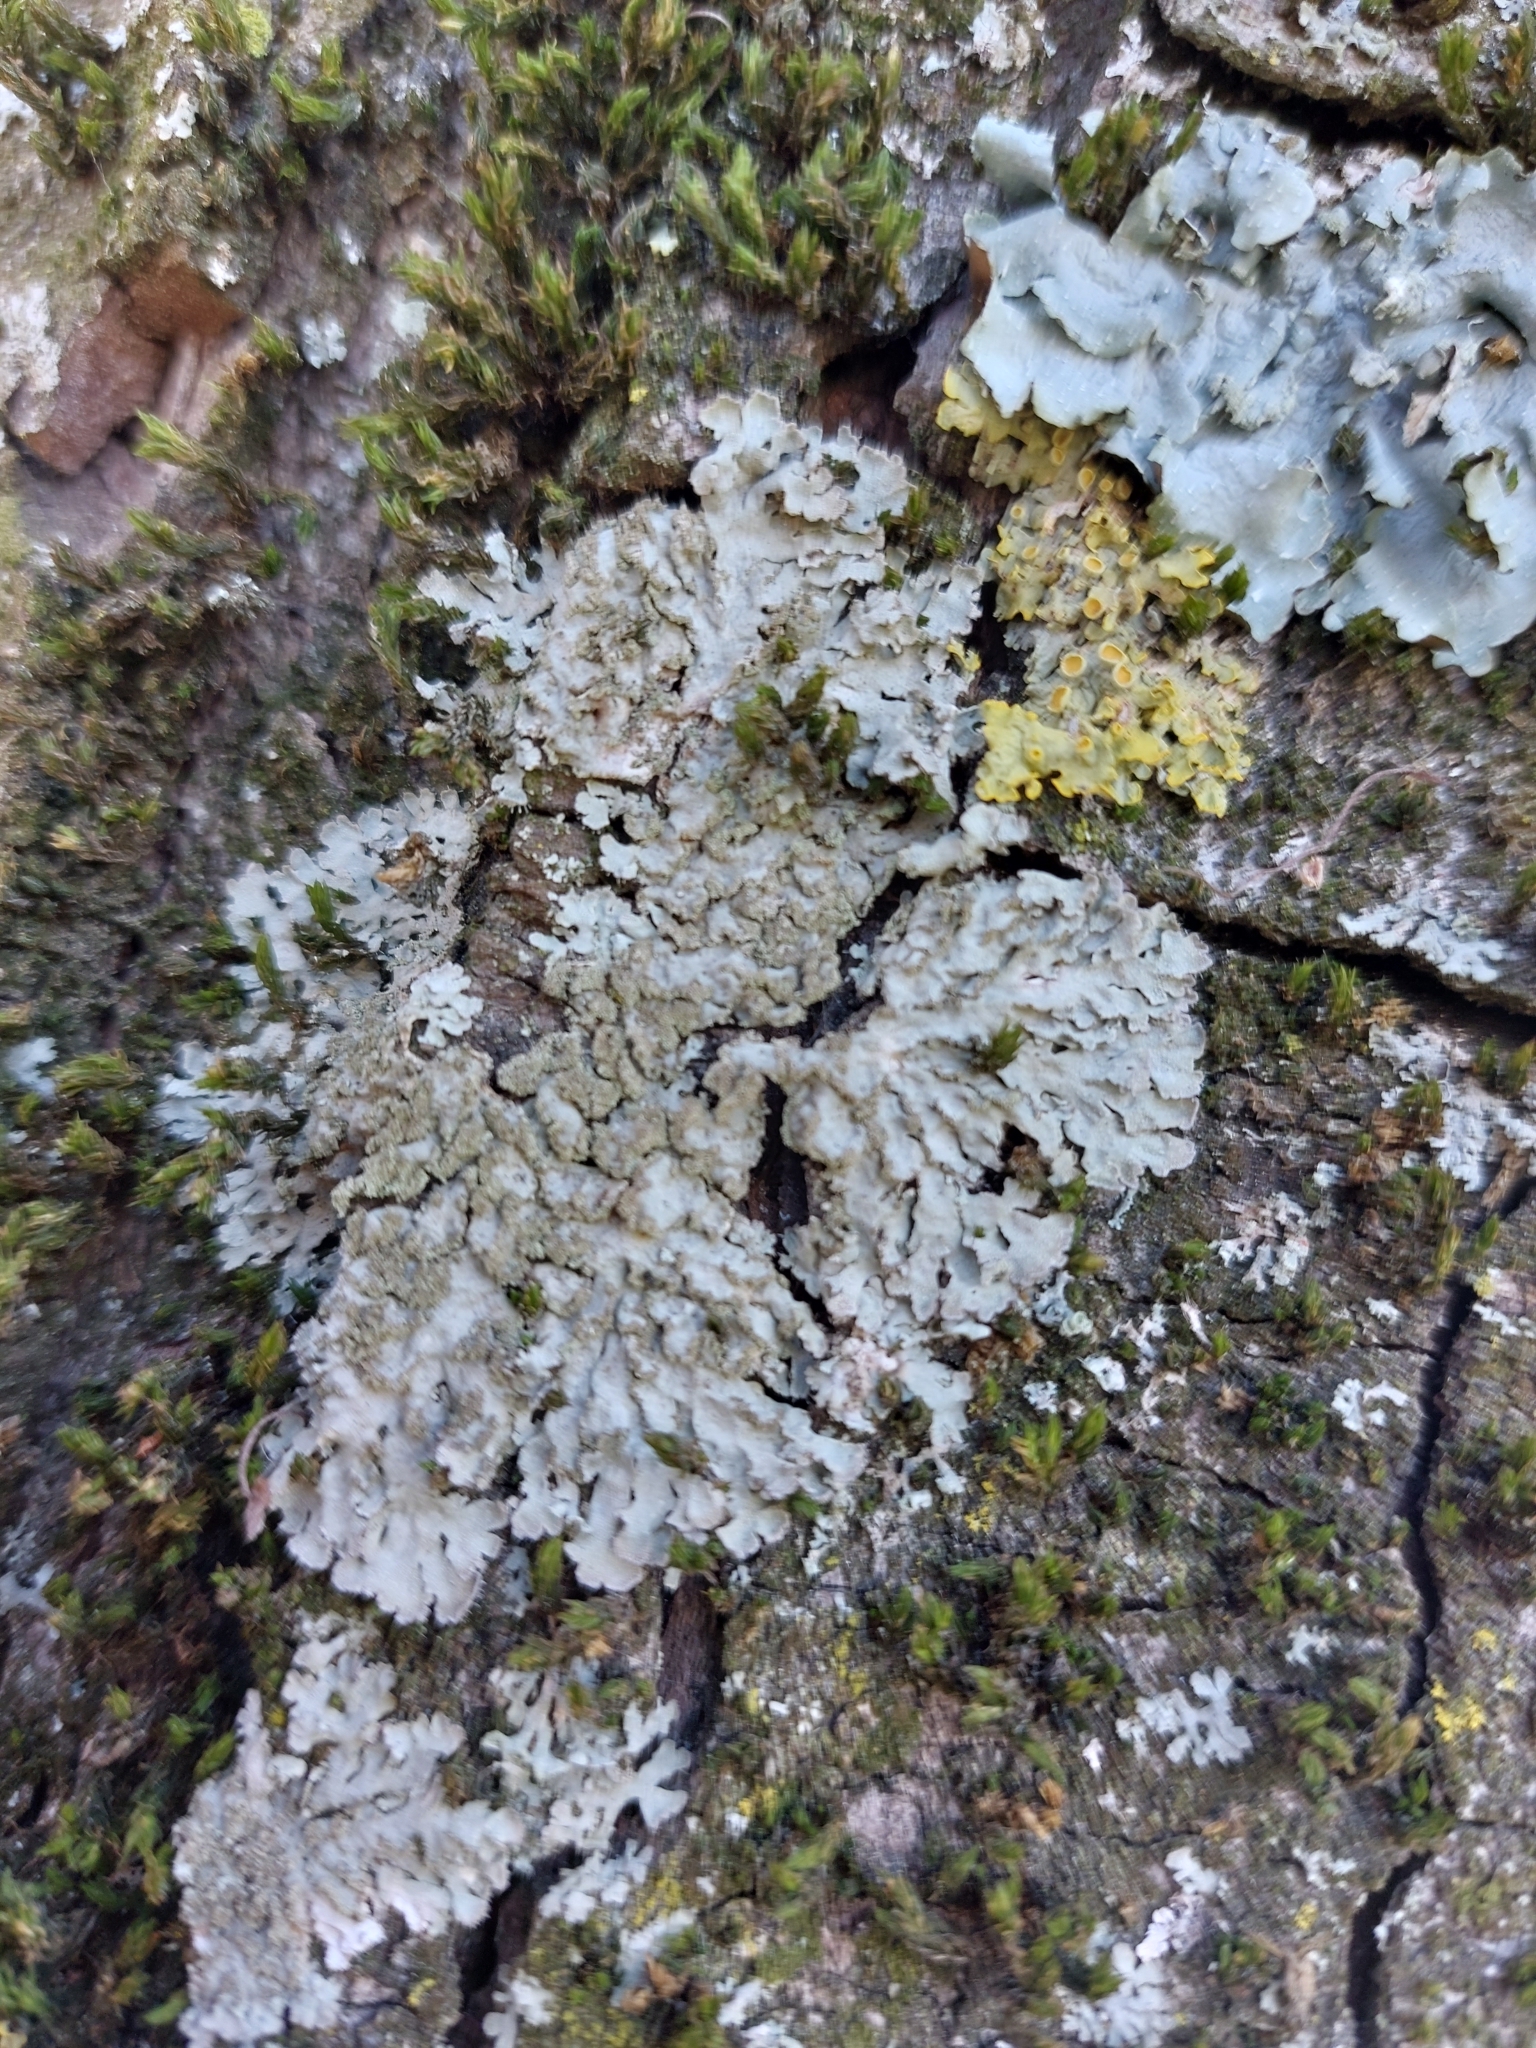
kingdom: Fungi
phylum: Ascomycota
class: Lecanoromycetes
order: Caliciales
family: Physciaceae
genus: Poeltonia
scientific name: Poeltonia grisea
